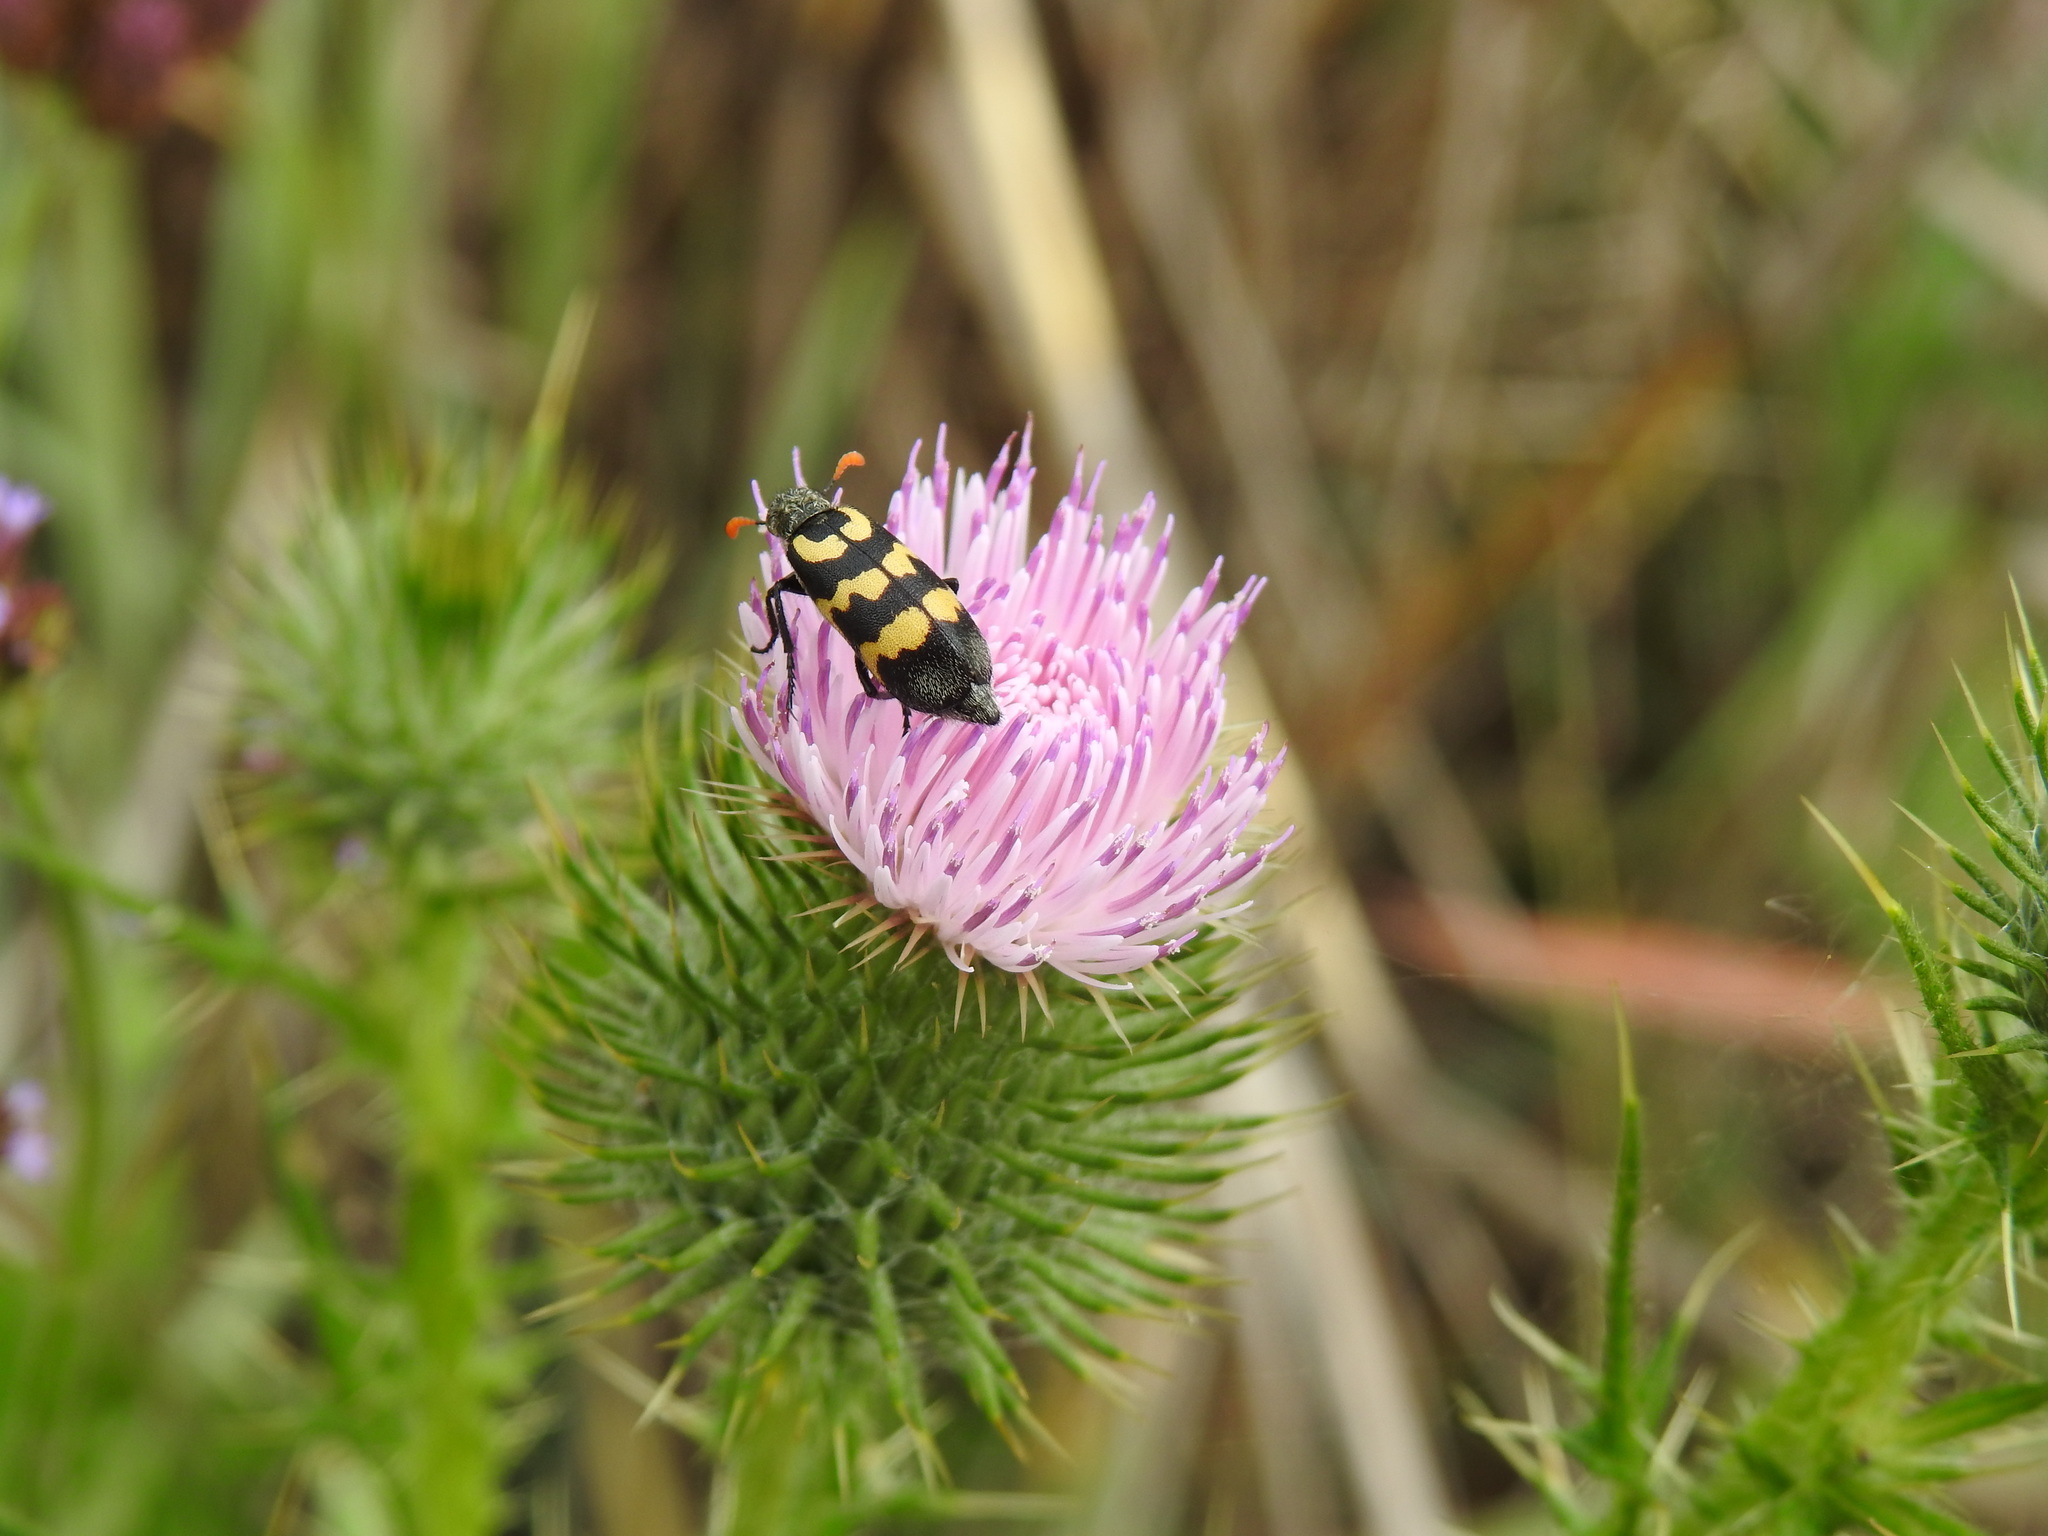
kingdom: Plantae
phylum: Tracheophyta
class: Magnoliopsida
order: Asterales
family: Asteraceae
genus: Cirsium
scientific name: Cirsium vulgare
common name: Bull thistle
